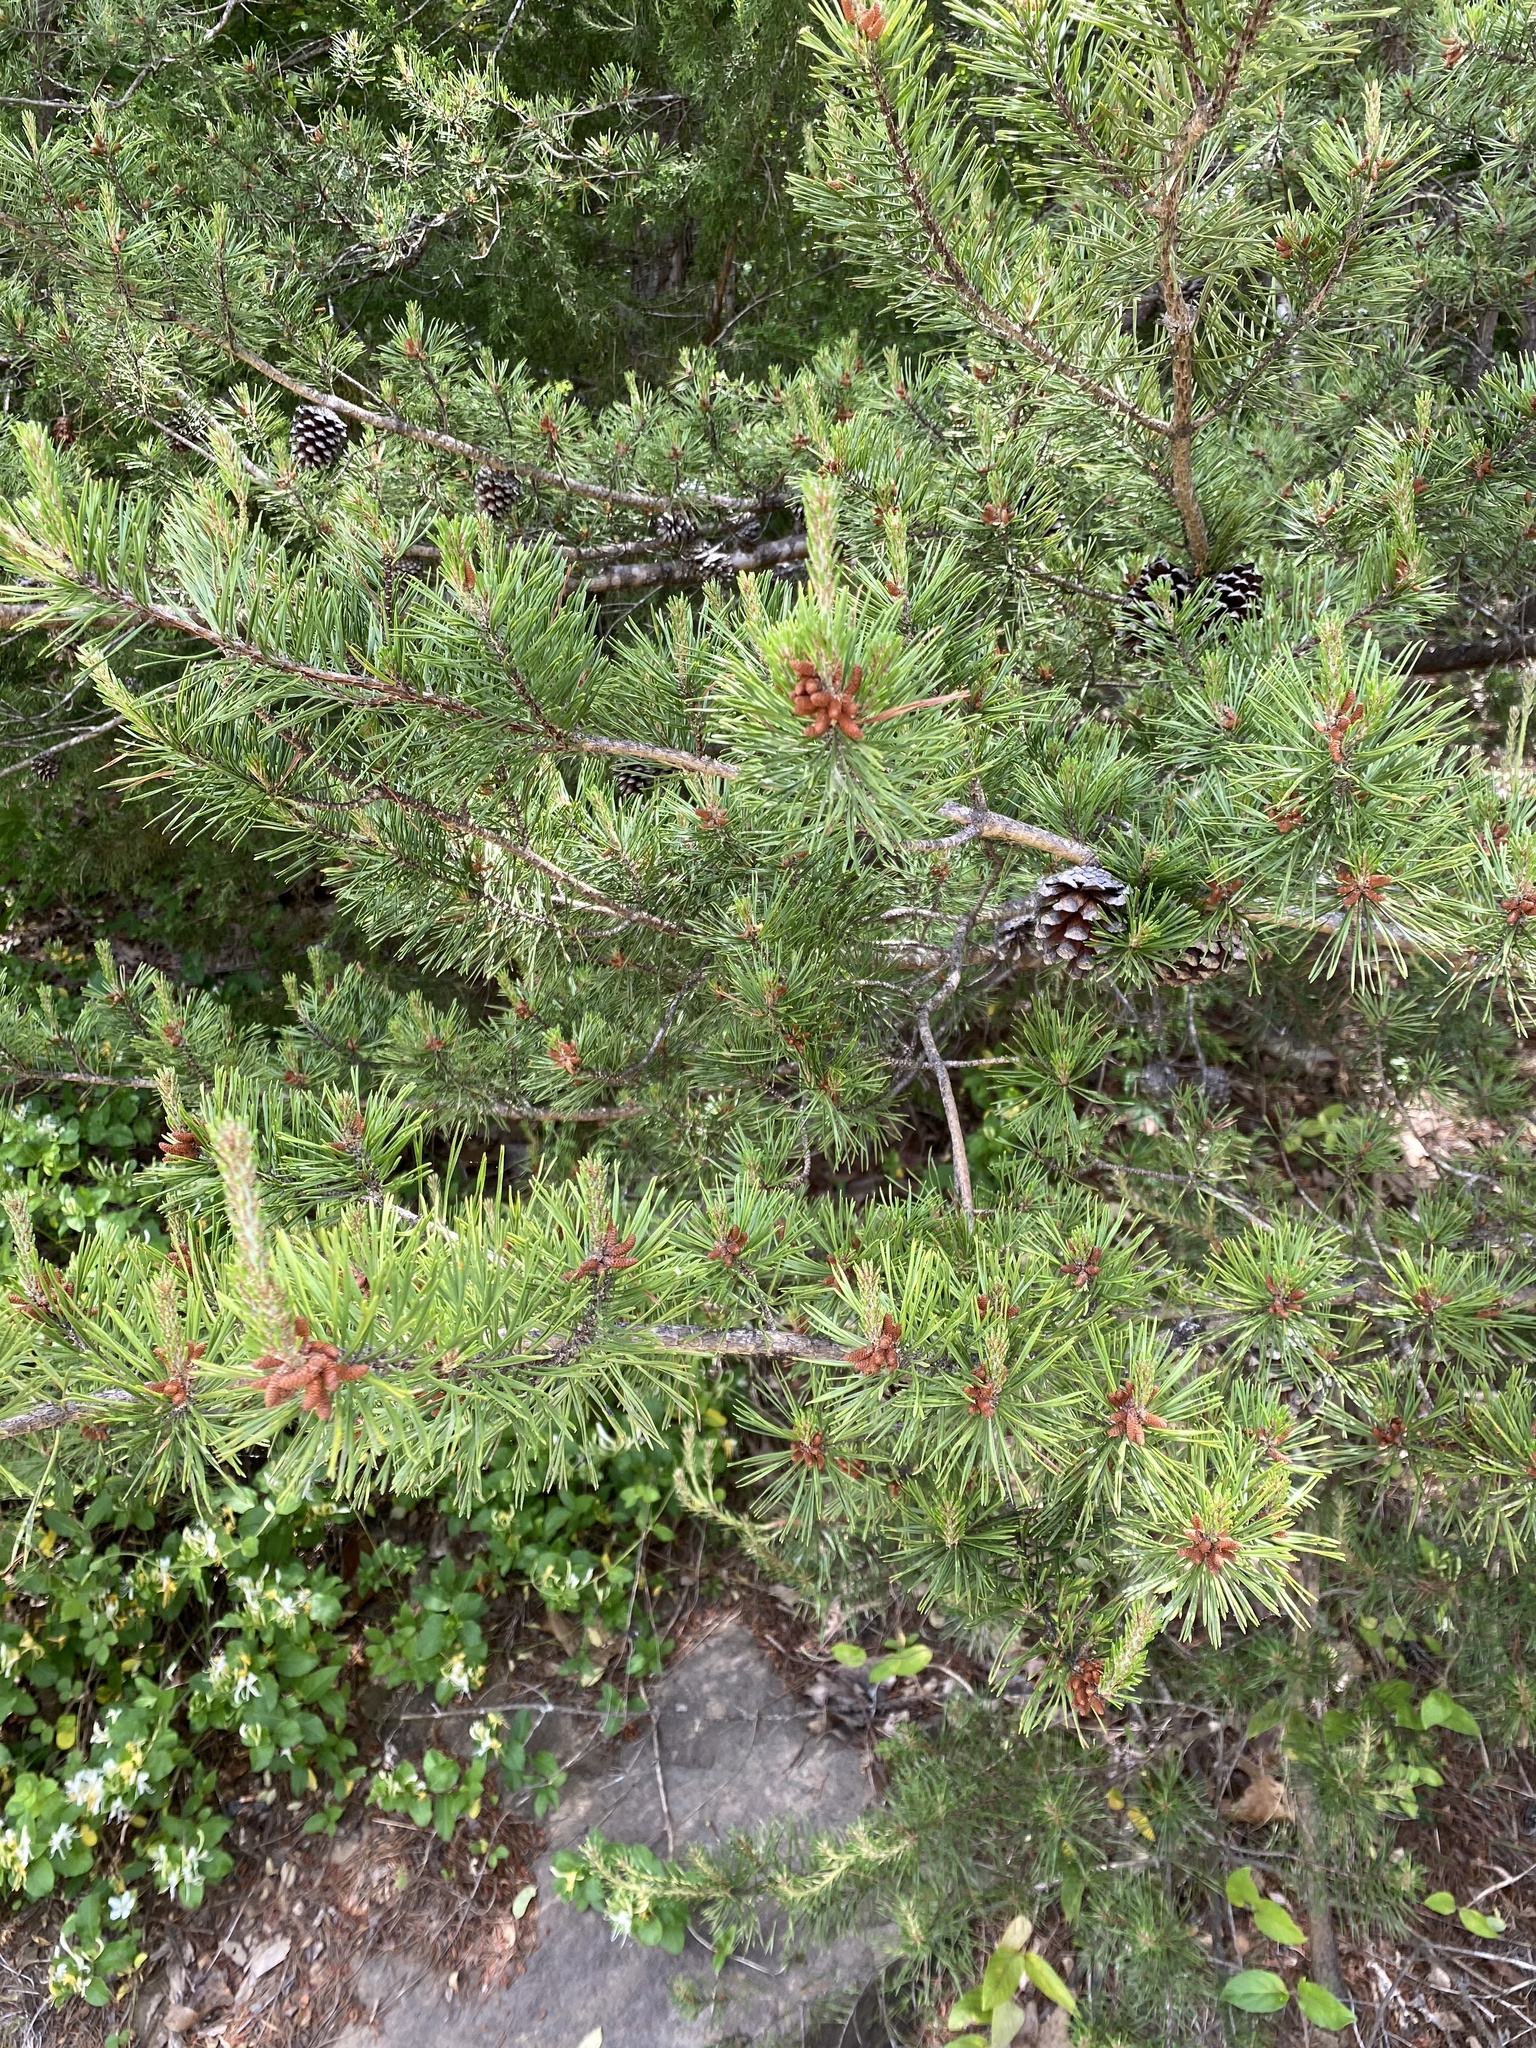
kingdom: Plantae
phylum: Tracheophyta
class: Pinopsida
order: Pinales
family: Pinaceae
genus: Pinus
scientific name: Pinus virginiana
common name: Scrub pine
